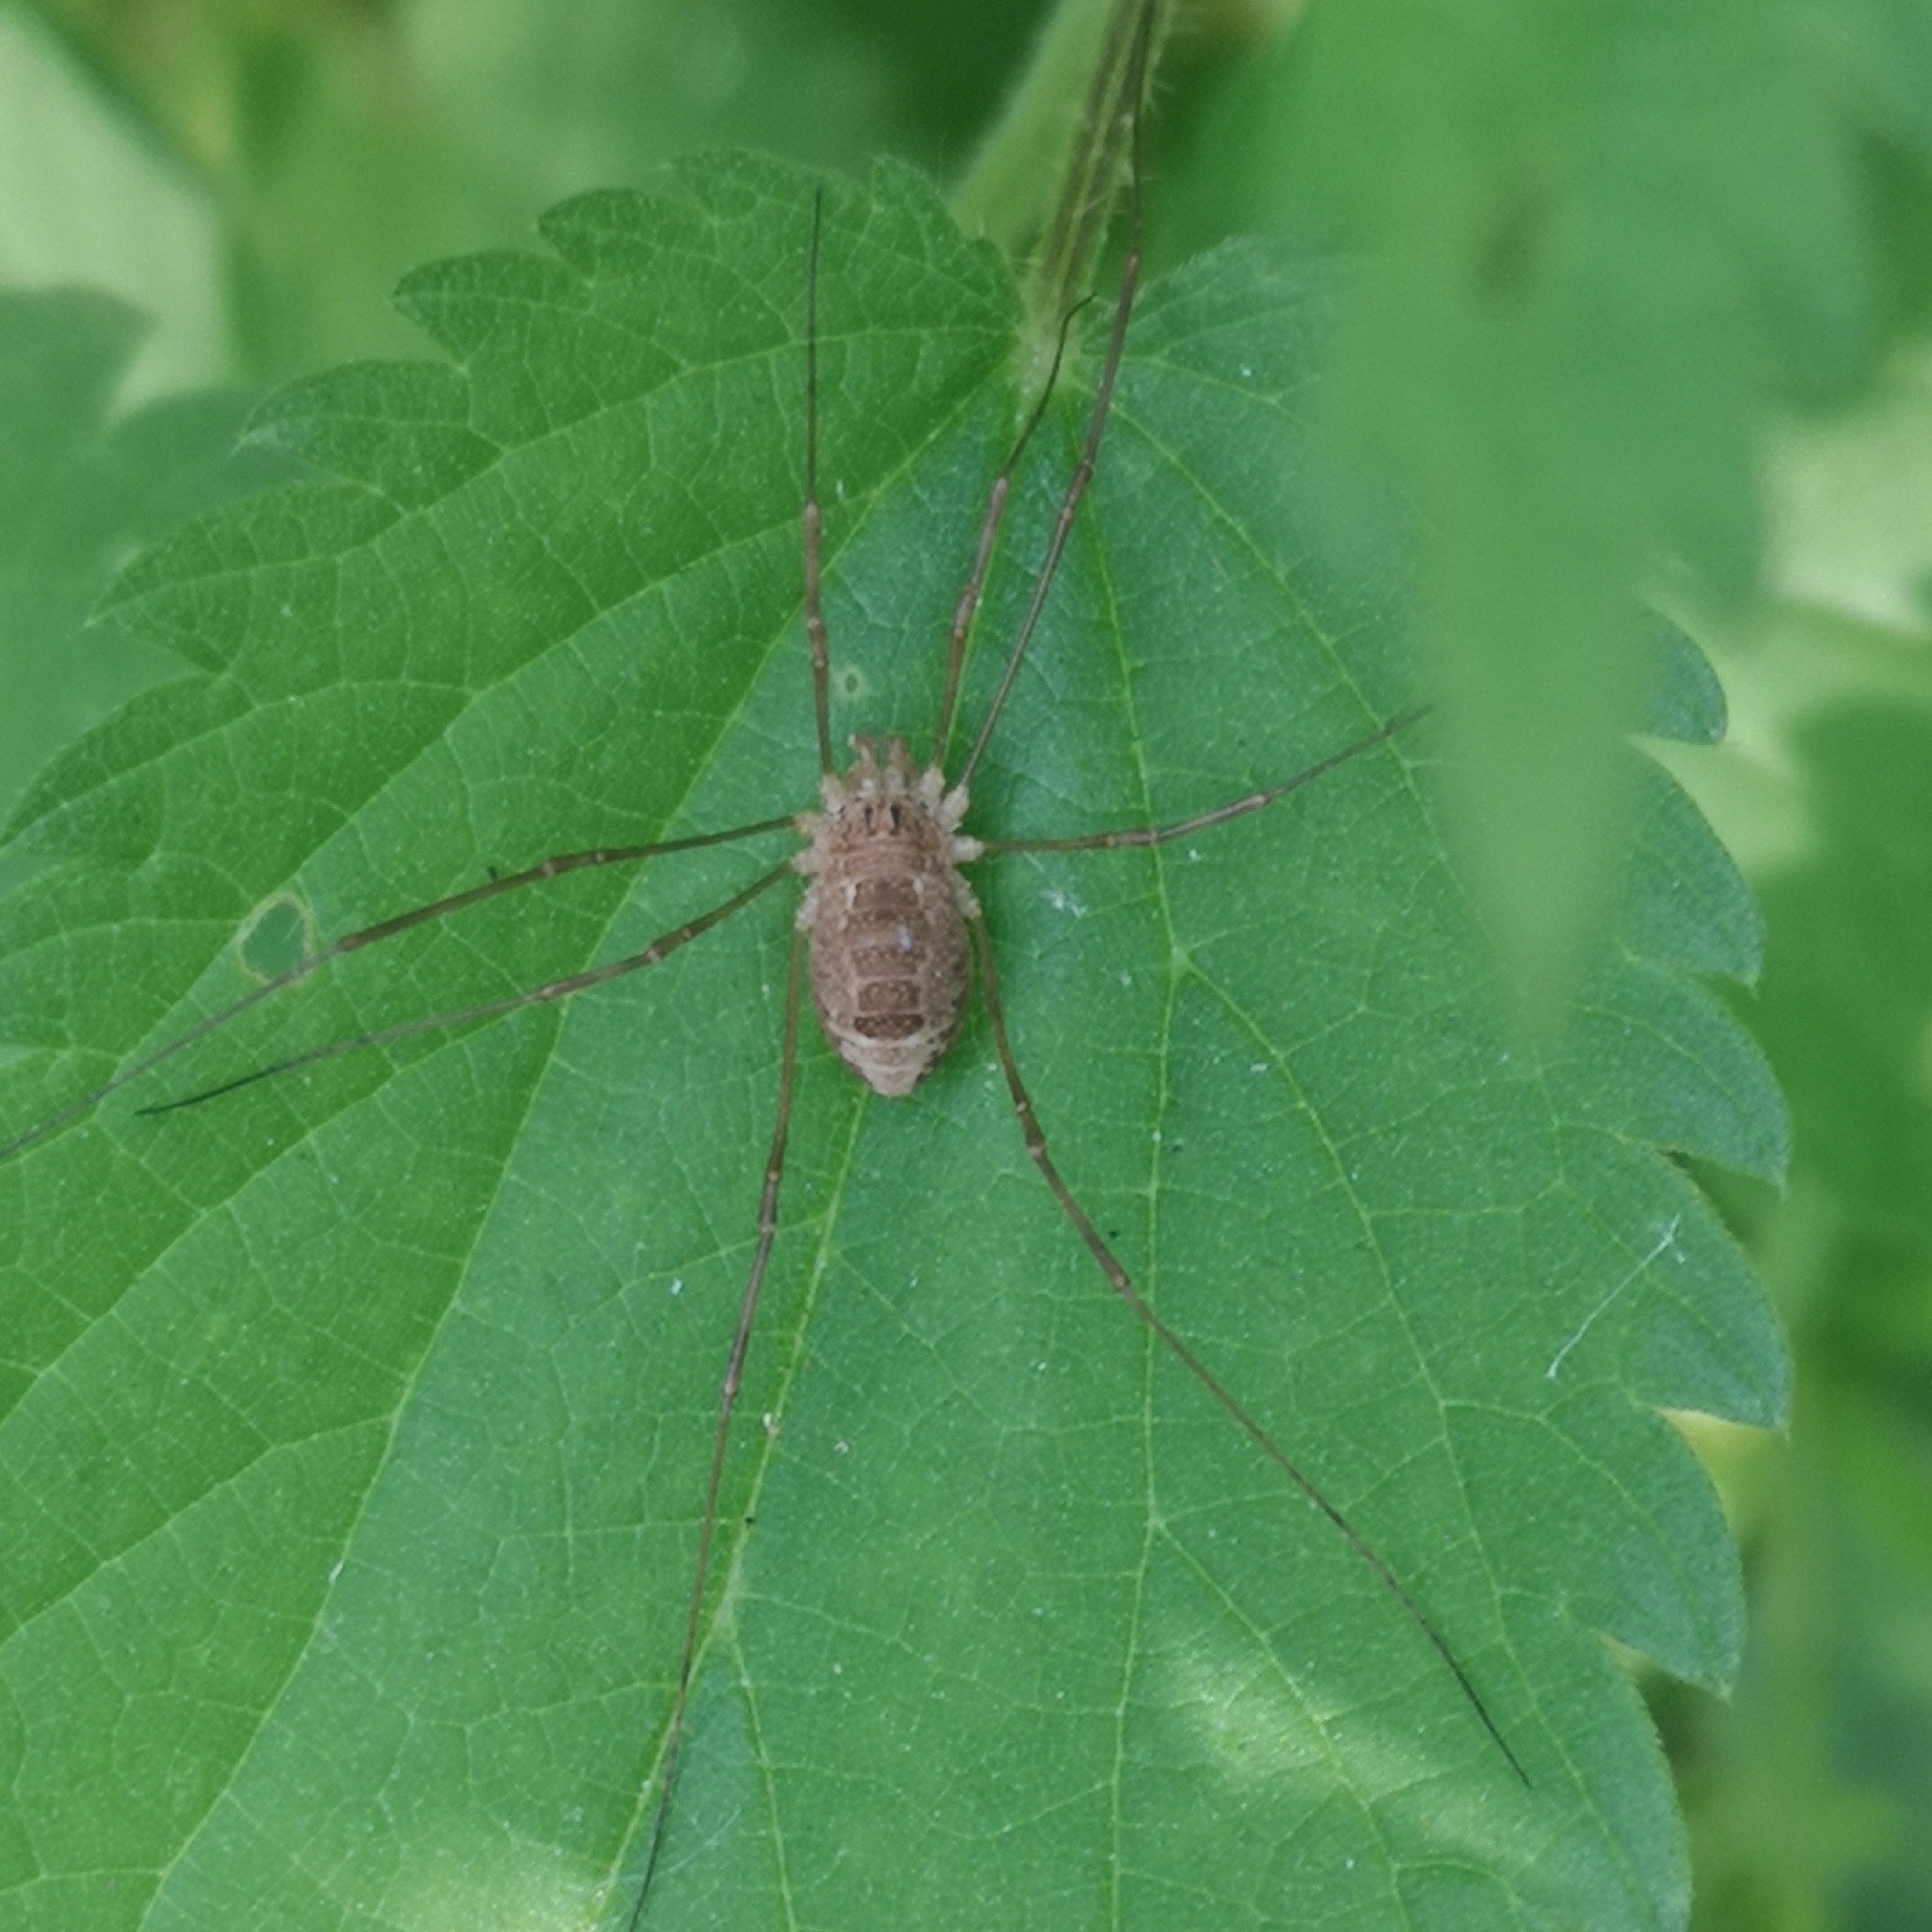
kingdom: Animalia
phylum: Arthropoda
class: Arachnida
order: Opiliones
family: Phalangiidae
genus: Rilaena
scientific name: Rilaena triangularis
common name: Spring harvestman
